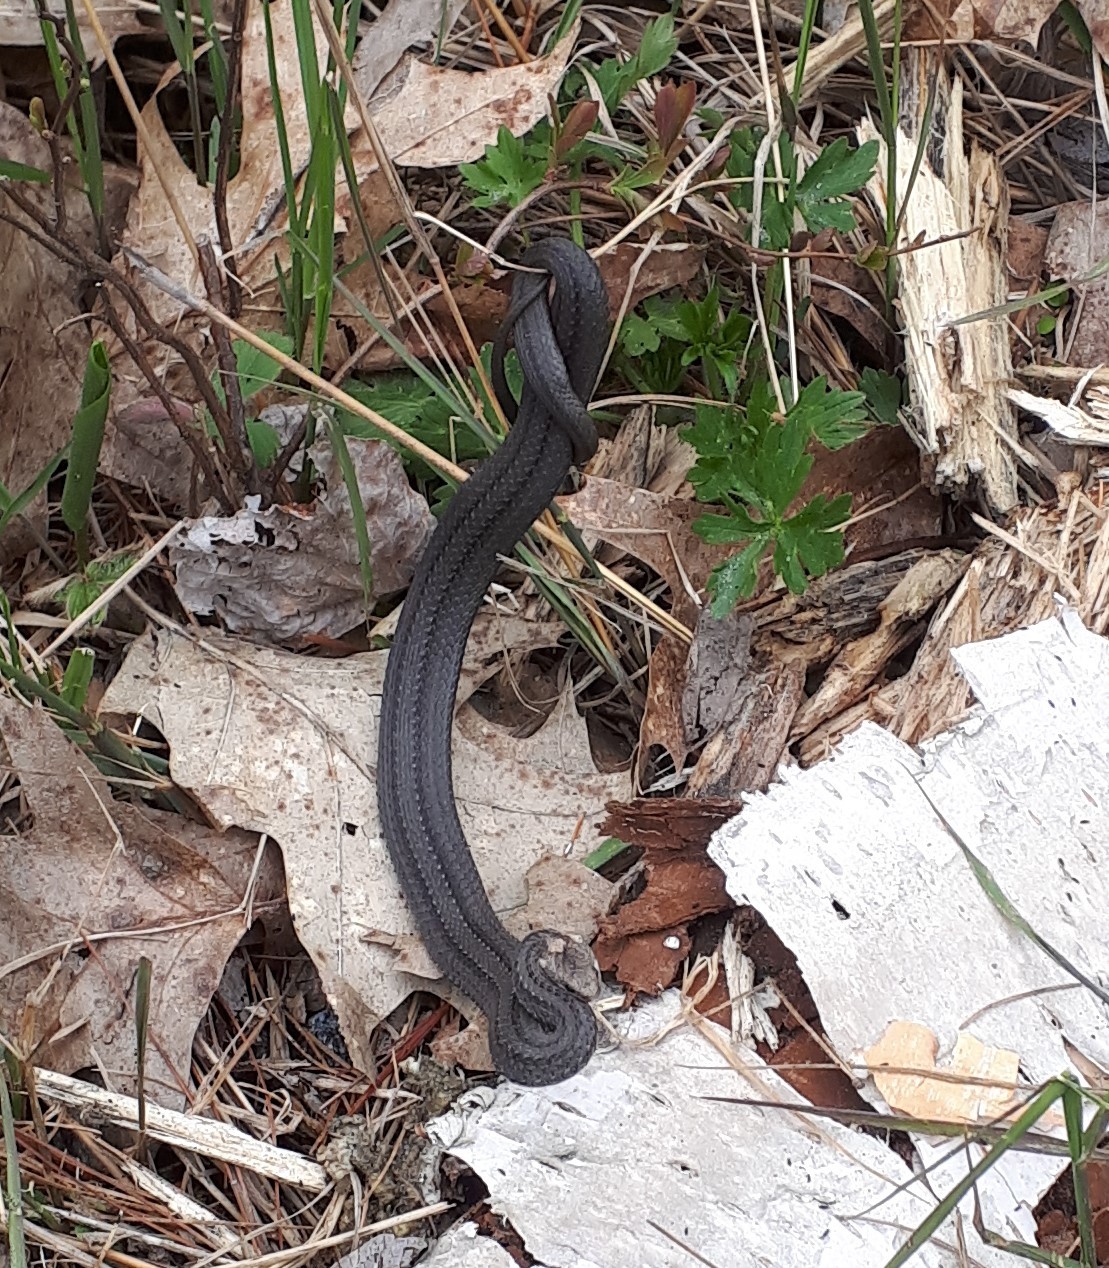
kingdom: Animalia
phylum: Chordata
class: Squamata
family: Colubridae
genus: Storeria
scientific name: Storeria occipitomaculata
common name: Redbelly snake
